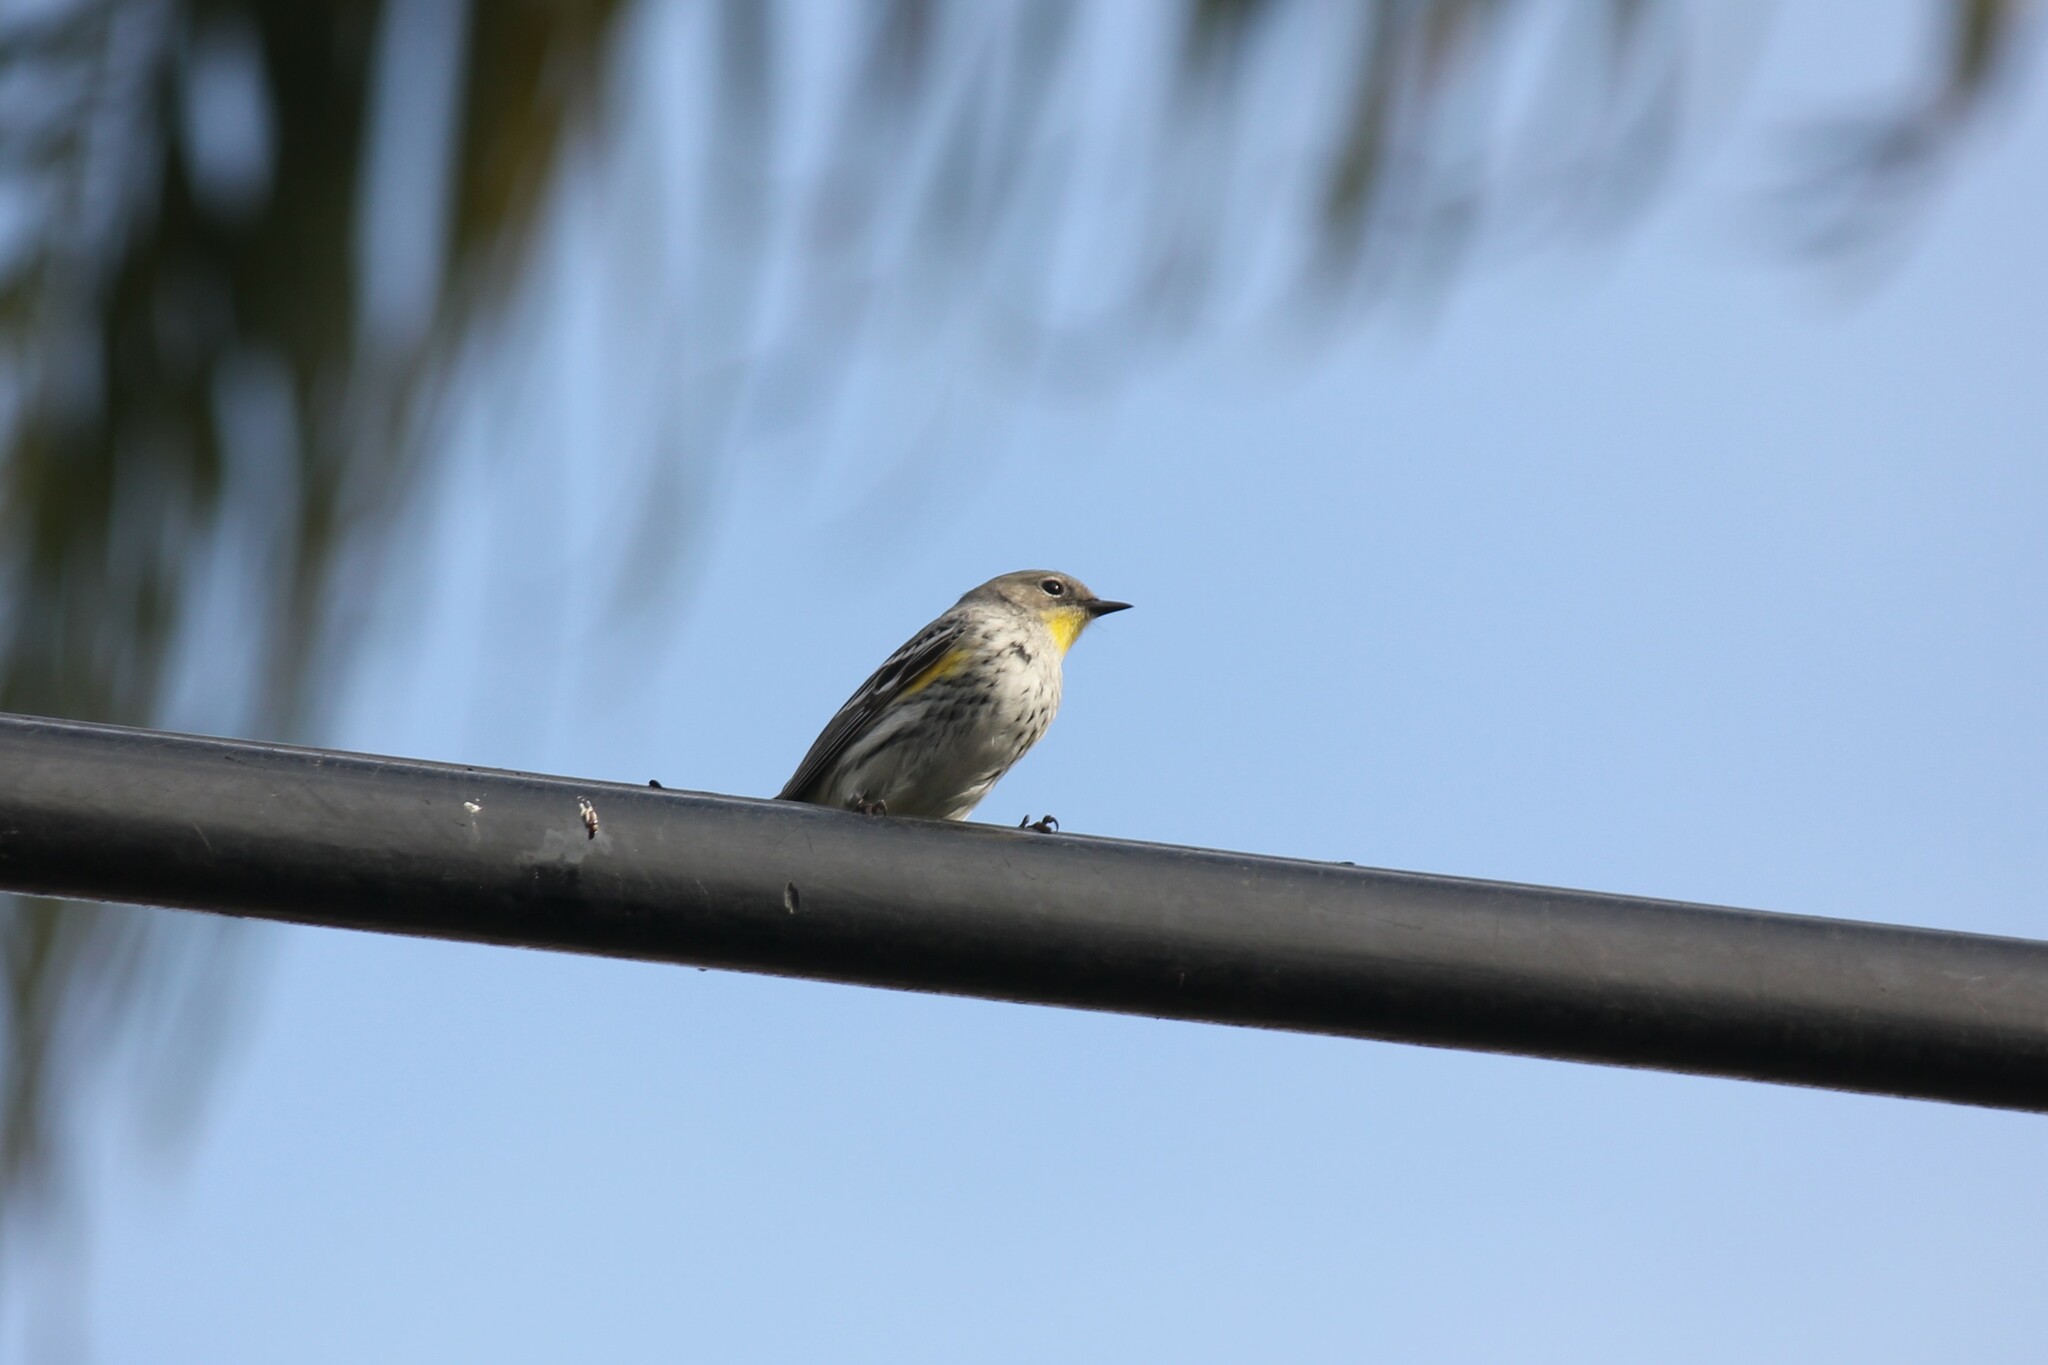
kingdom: Animalia
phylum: Chordata
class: Aves
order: Passeriformes
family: Parulidae
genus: Setophaga
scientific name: Setophaga coronata
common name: Myrtle warbler
